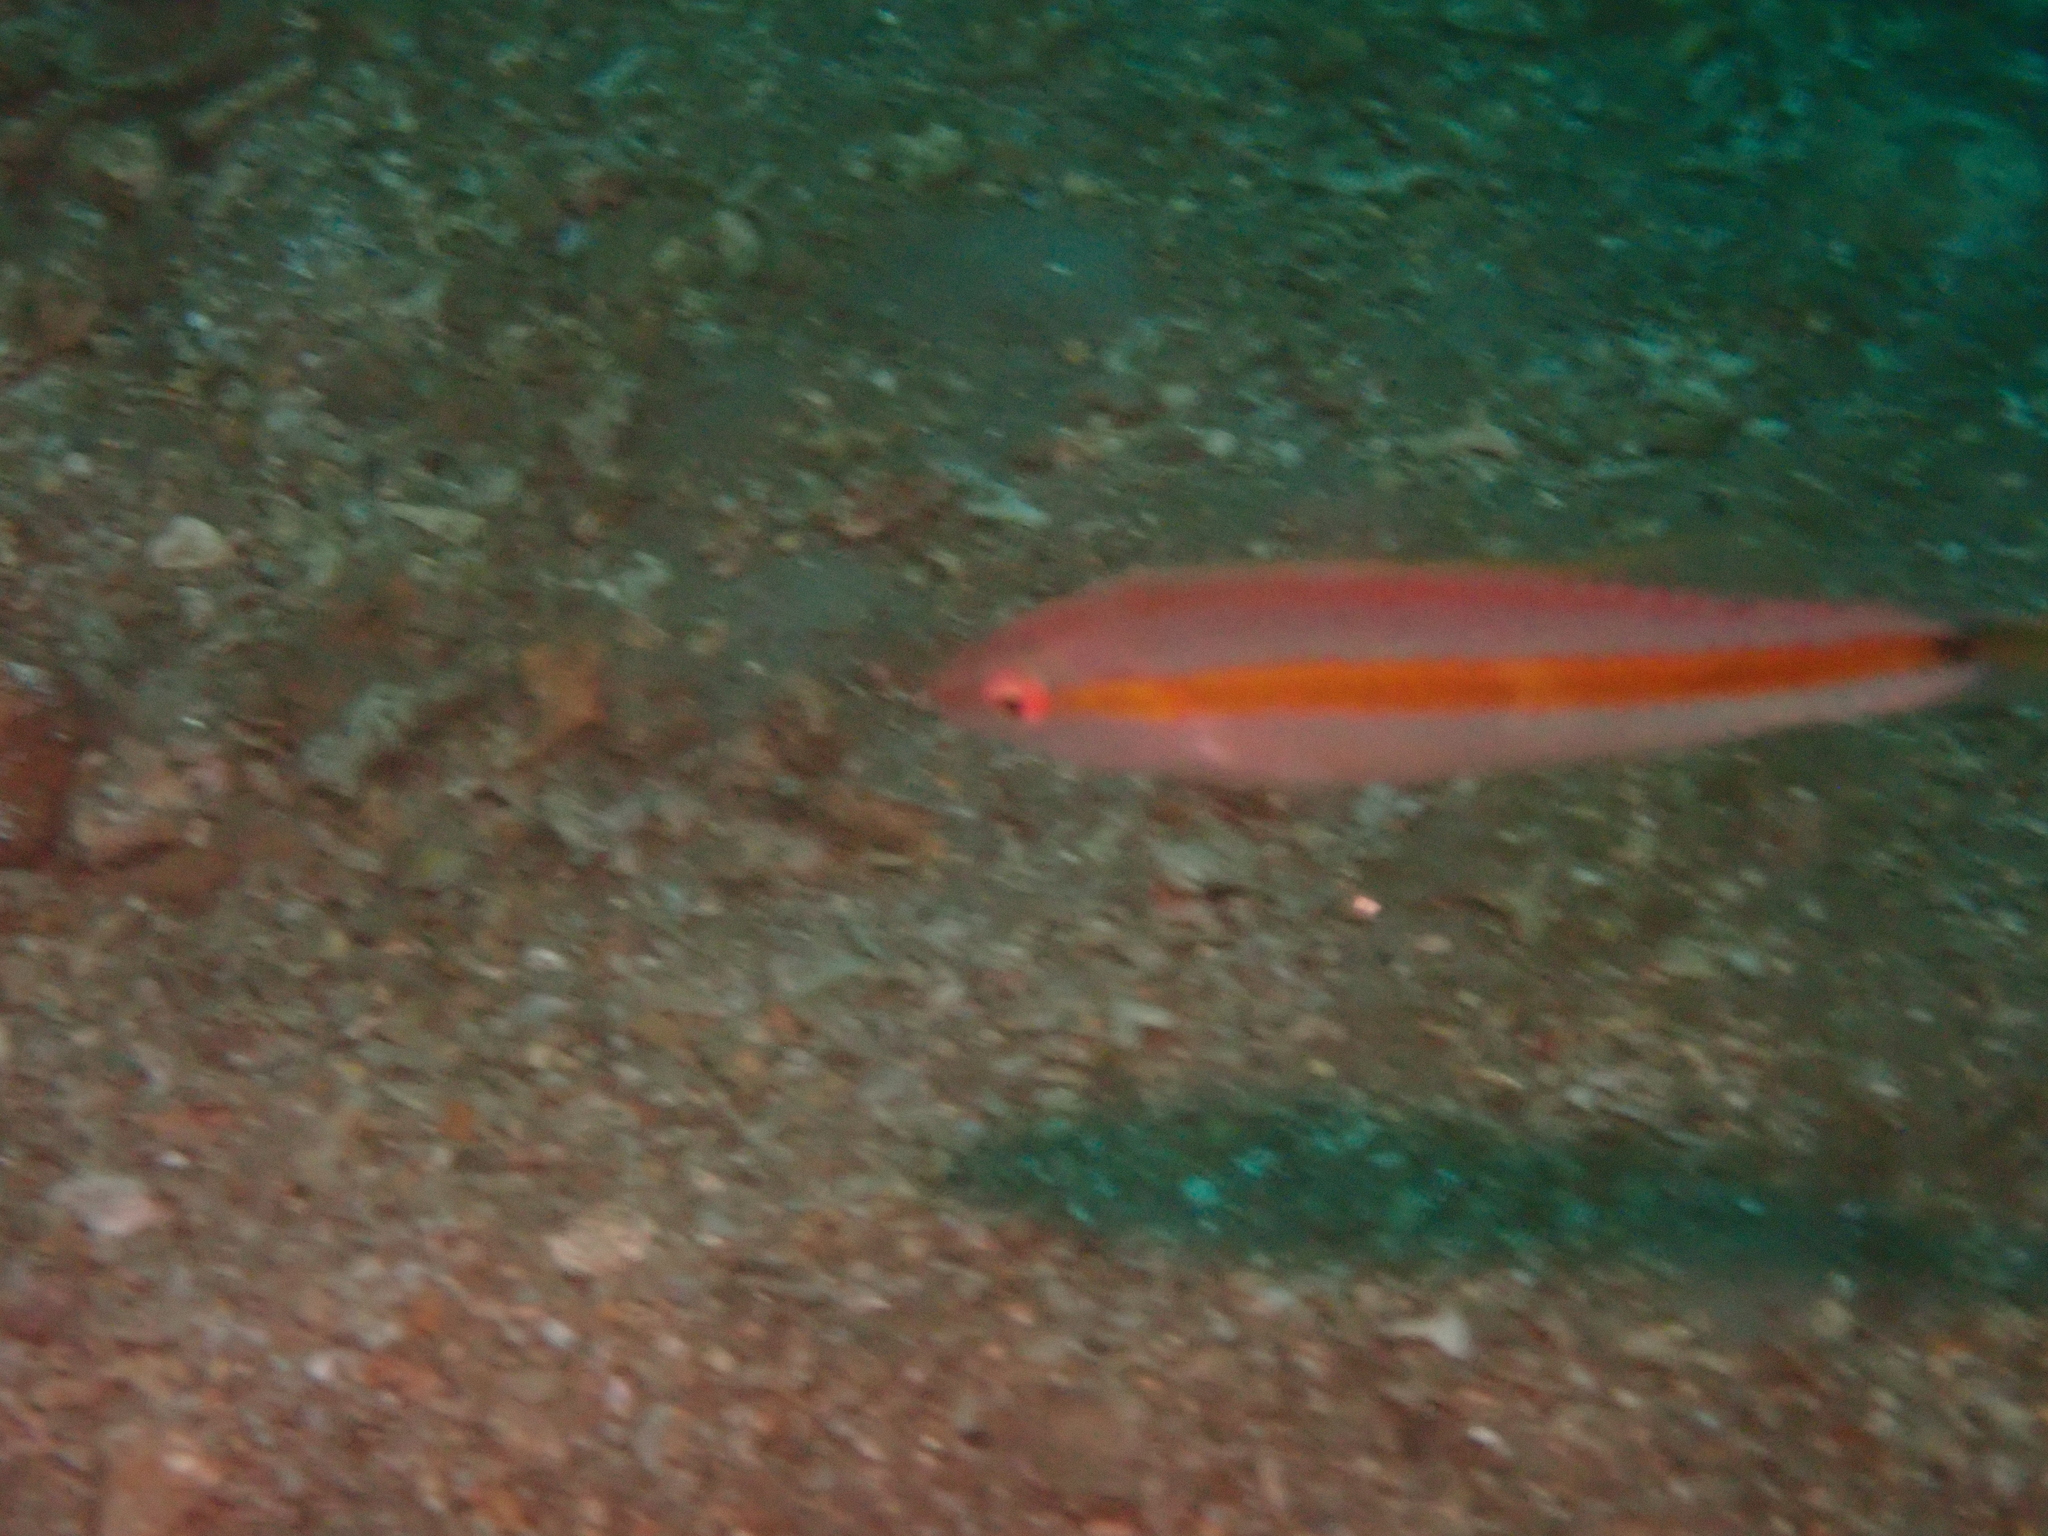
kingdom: Animalia
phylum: Chordata
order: Perciformes
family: Labridae
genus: Halichoeres
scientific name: Halichoeres hartzfeldii
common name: Goldstripe wrasse
